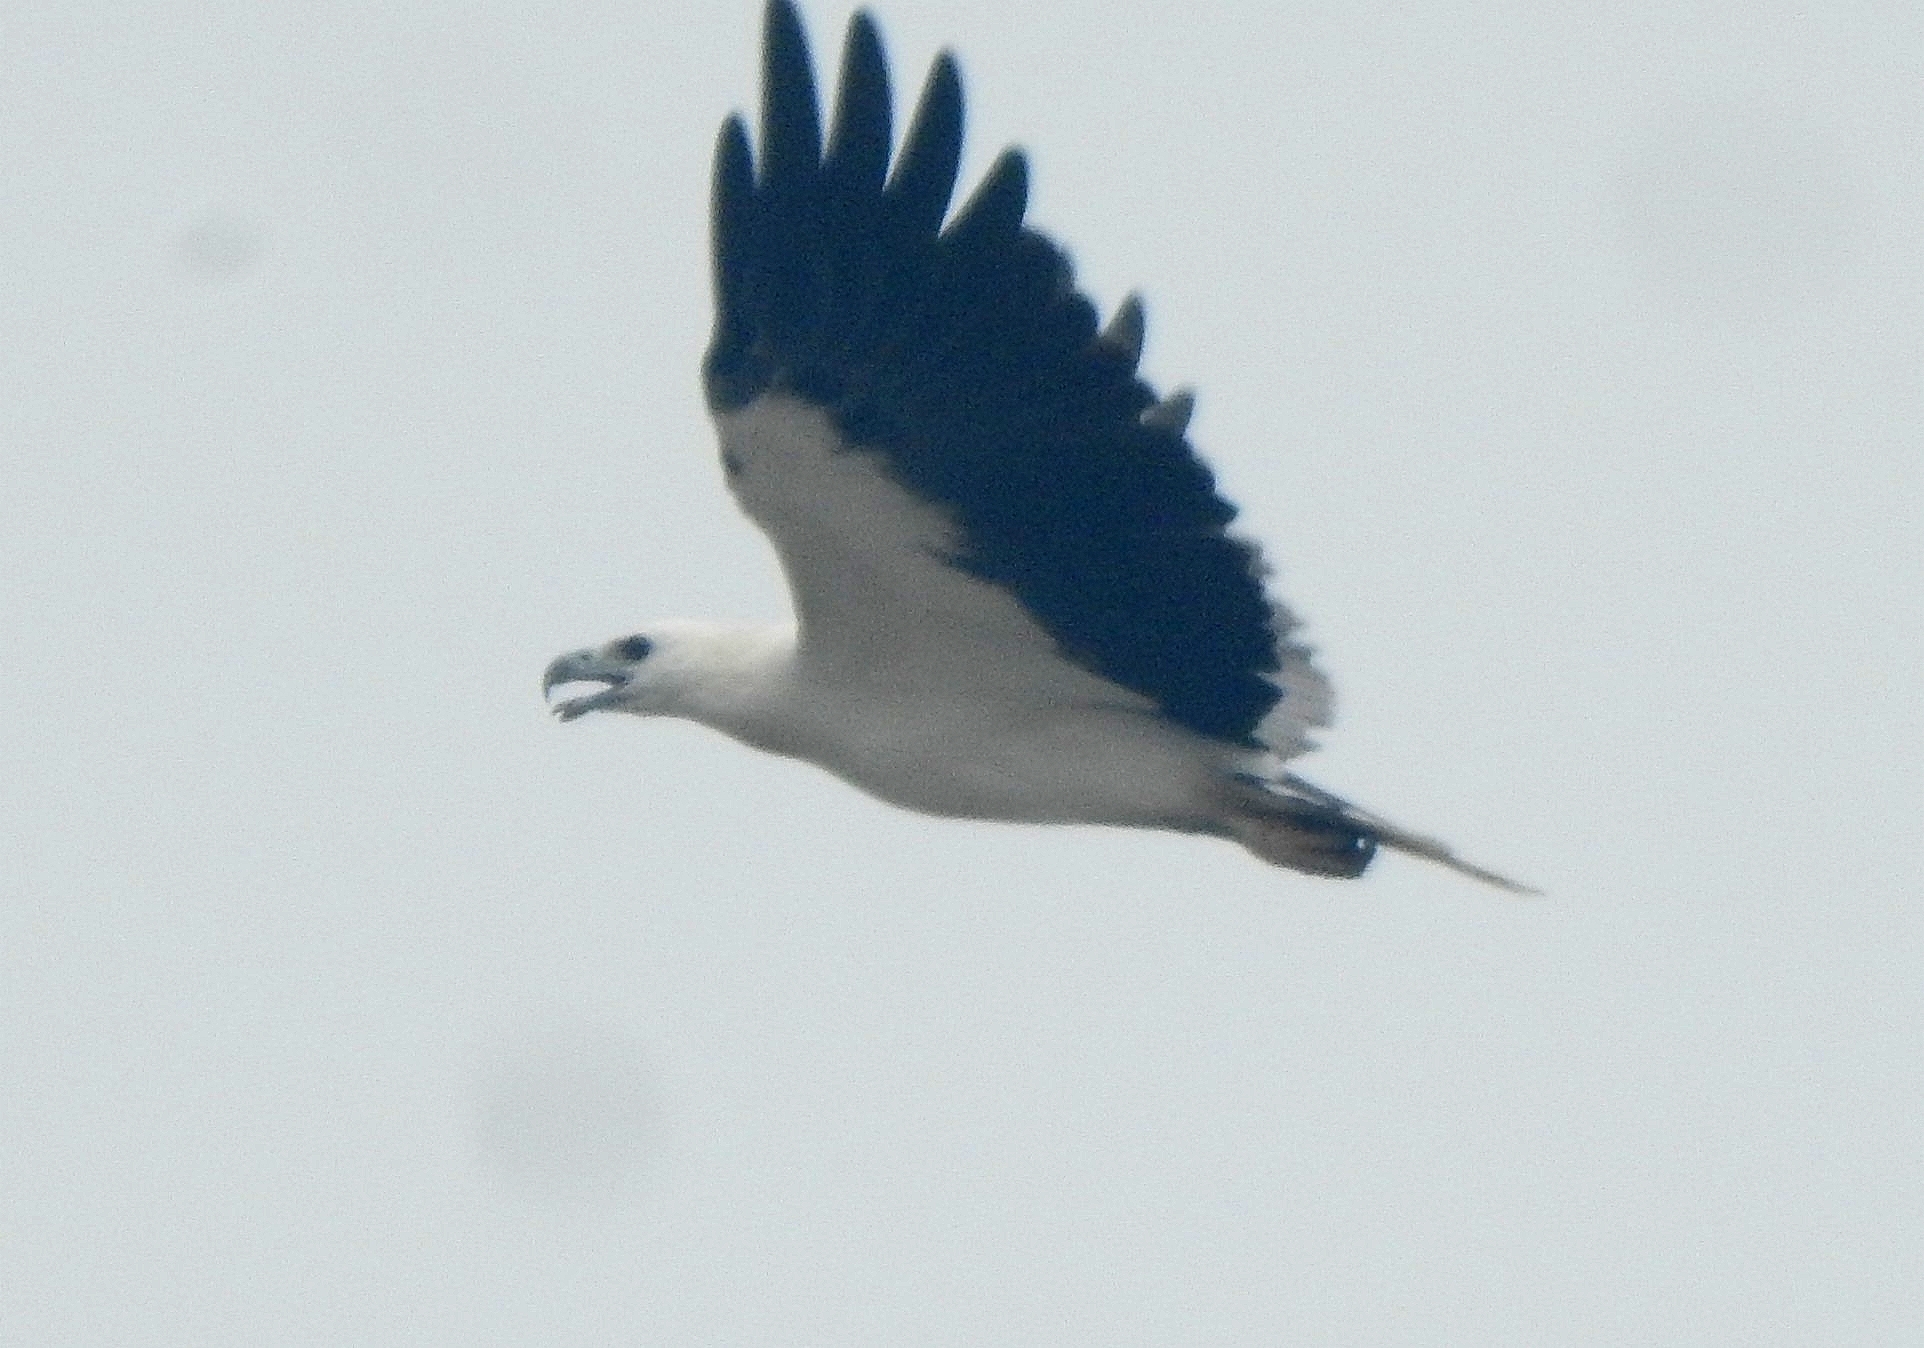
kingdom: Animalia
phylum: Chordata
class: Aves
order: Accipitriformes
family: Accipitridae
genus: Haliaeetus
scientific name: Haliaeetus leucogaster
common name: White-bellied sea eagle
